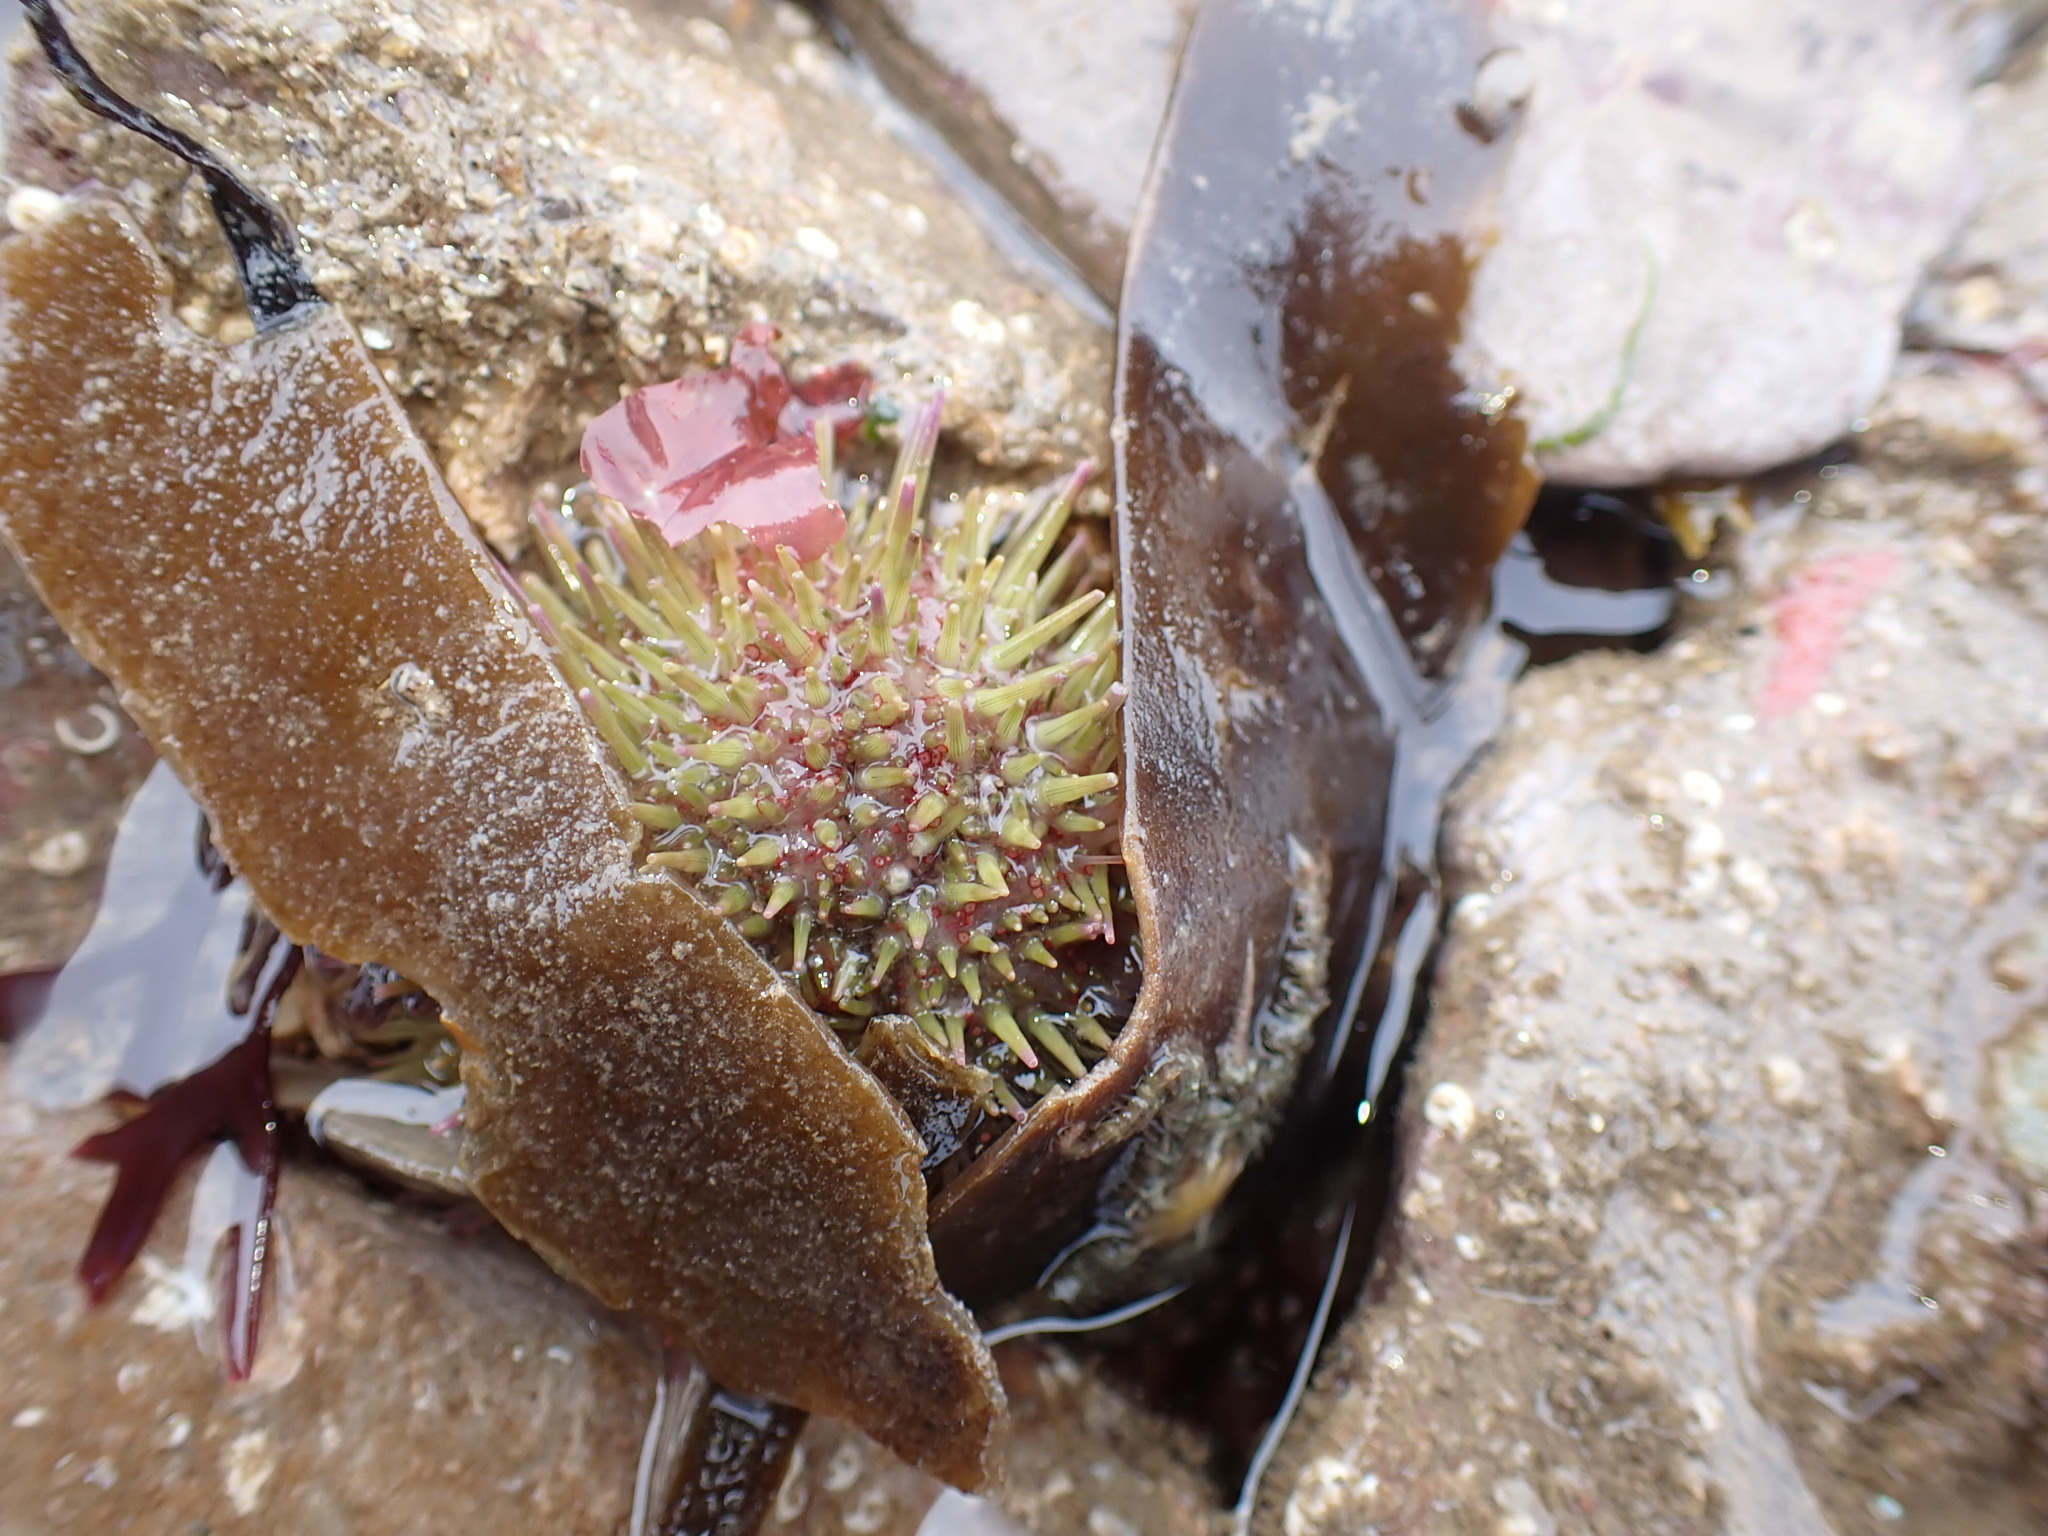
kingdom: Animalia
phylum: Echinodermata
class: Echinoidea
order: Camarodonta
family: Parechinidae
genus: Psammechinus
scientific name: Psammechinus miliaris
